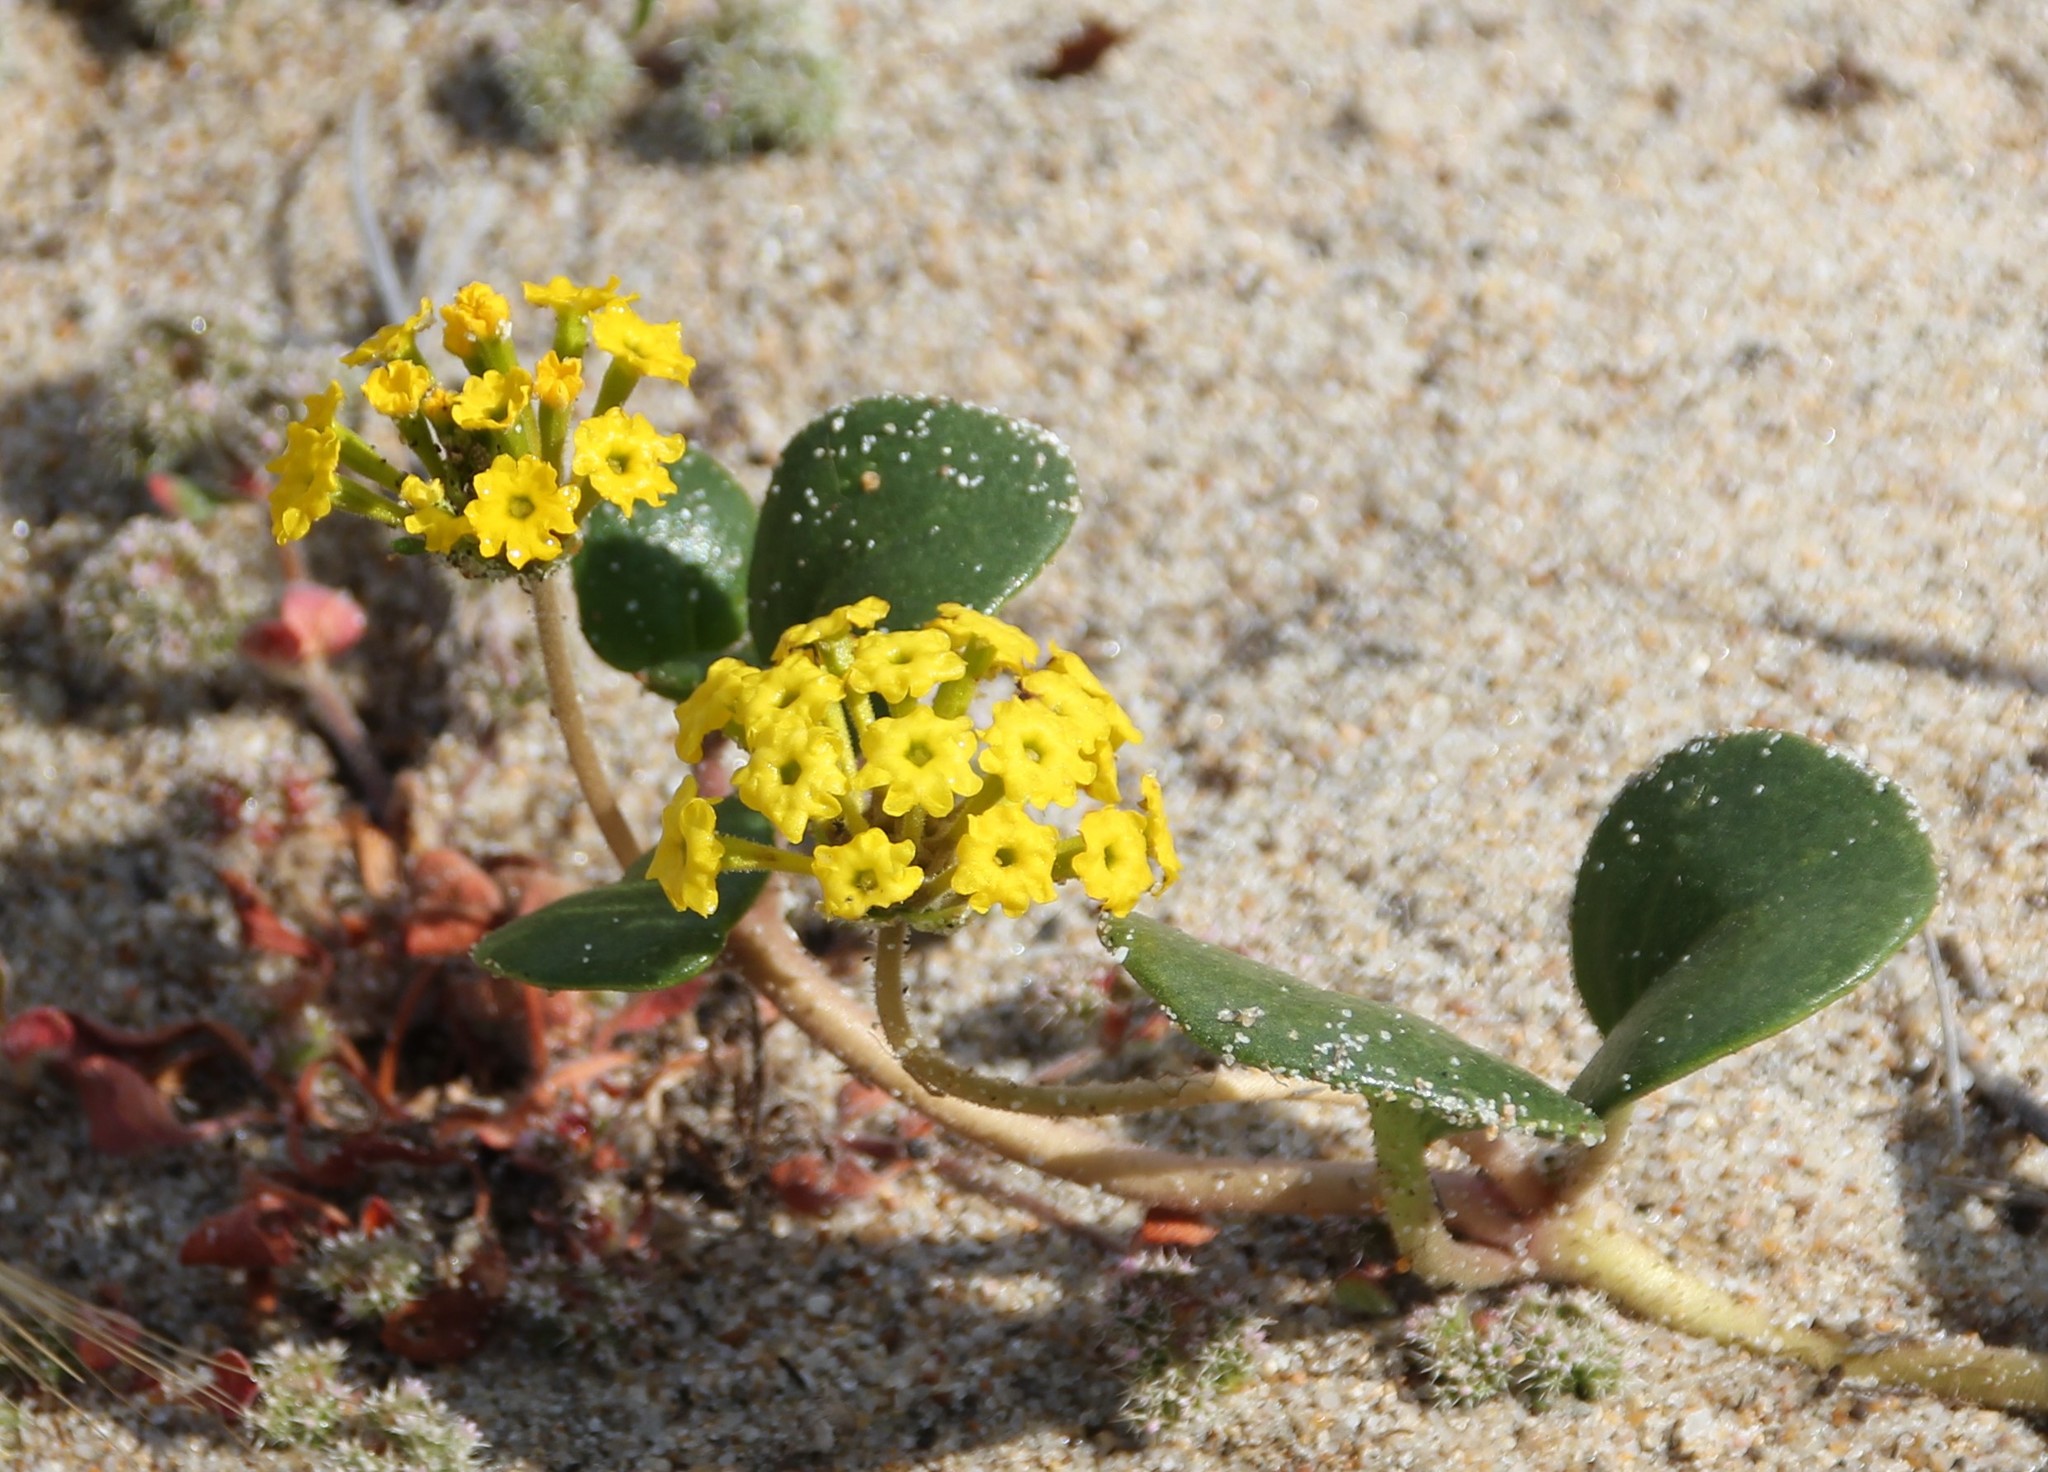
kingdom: Plantae
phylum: Tracheophyta
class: Magnoliopsida
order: Caryophyllales
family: Nyctaginaceae
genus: Abronia
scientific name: Abronia latifolia
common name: Yellow sand-verbena
